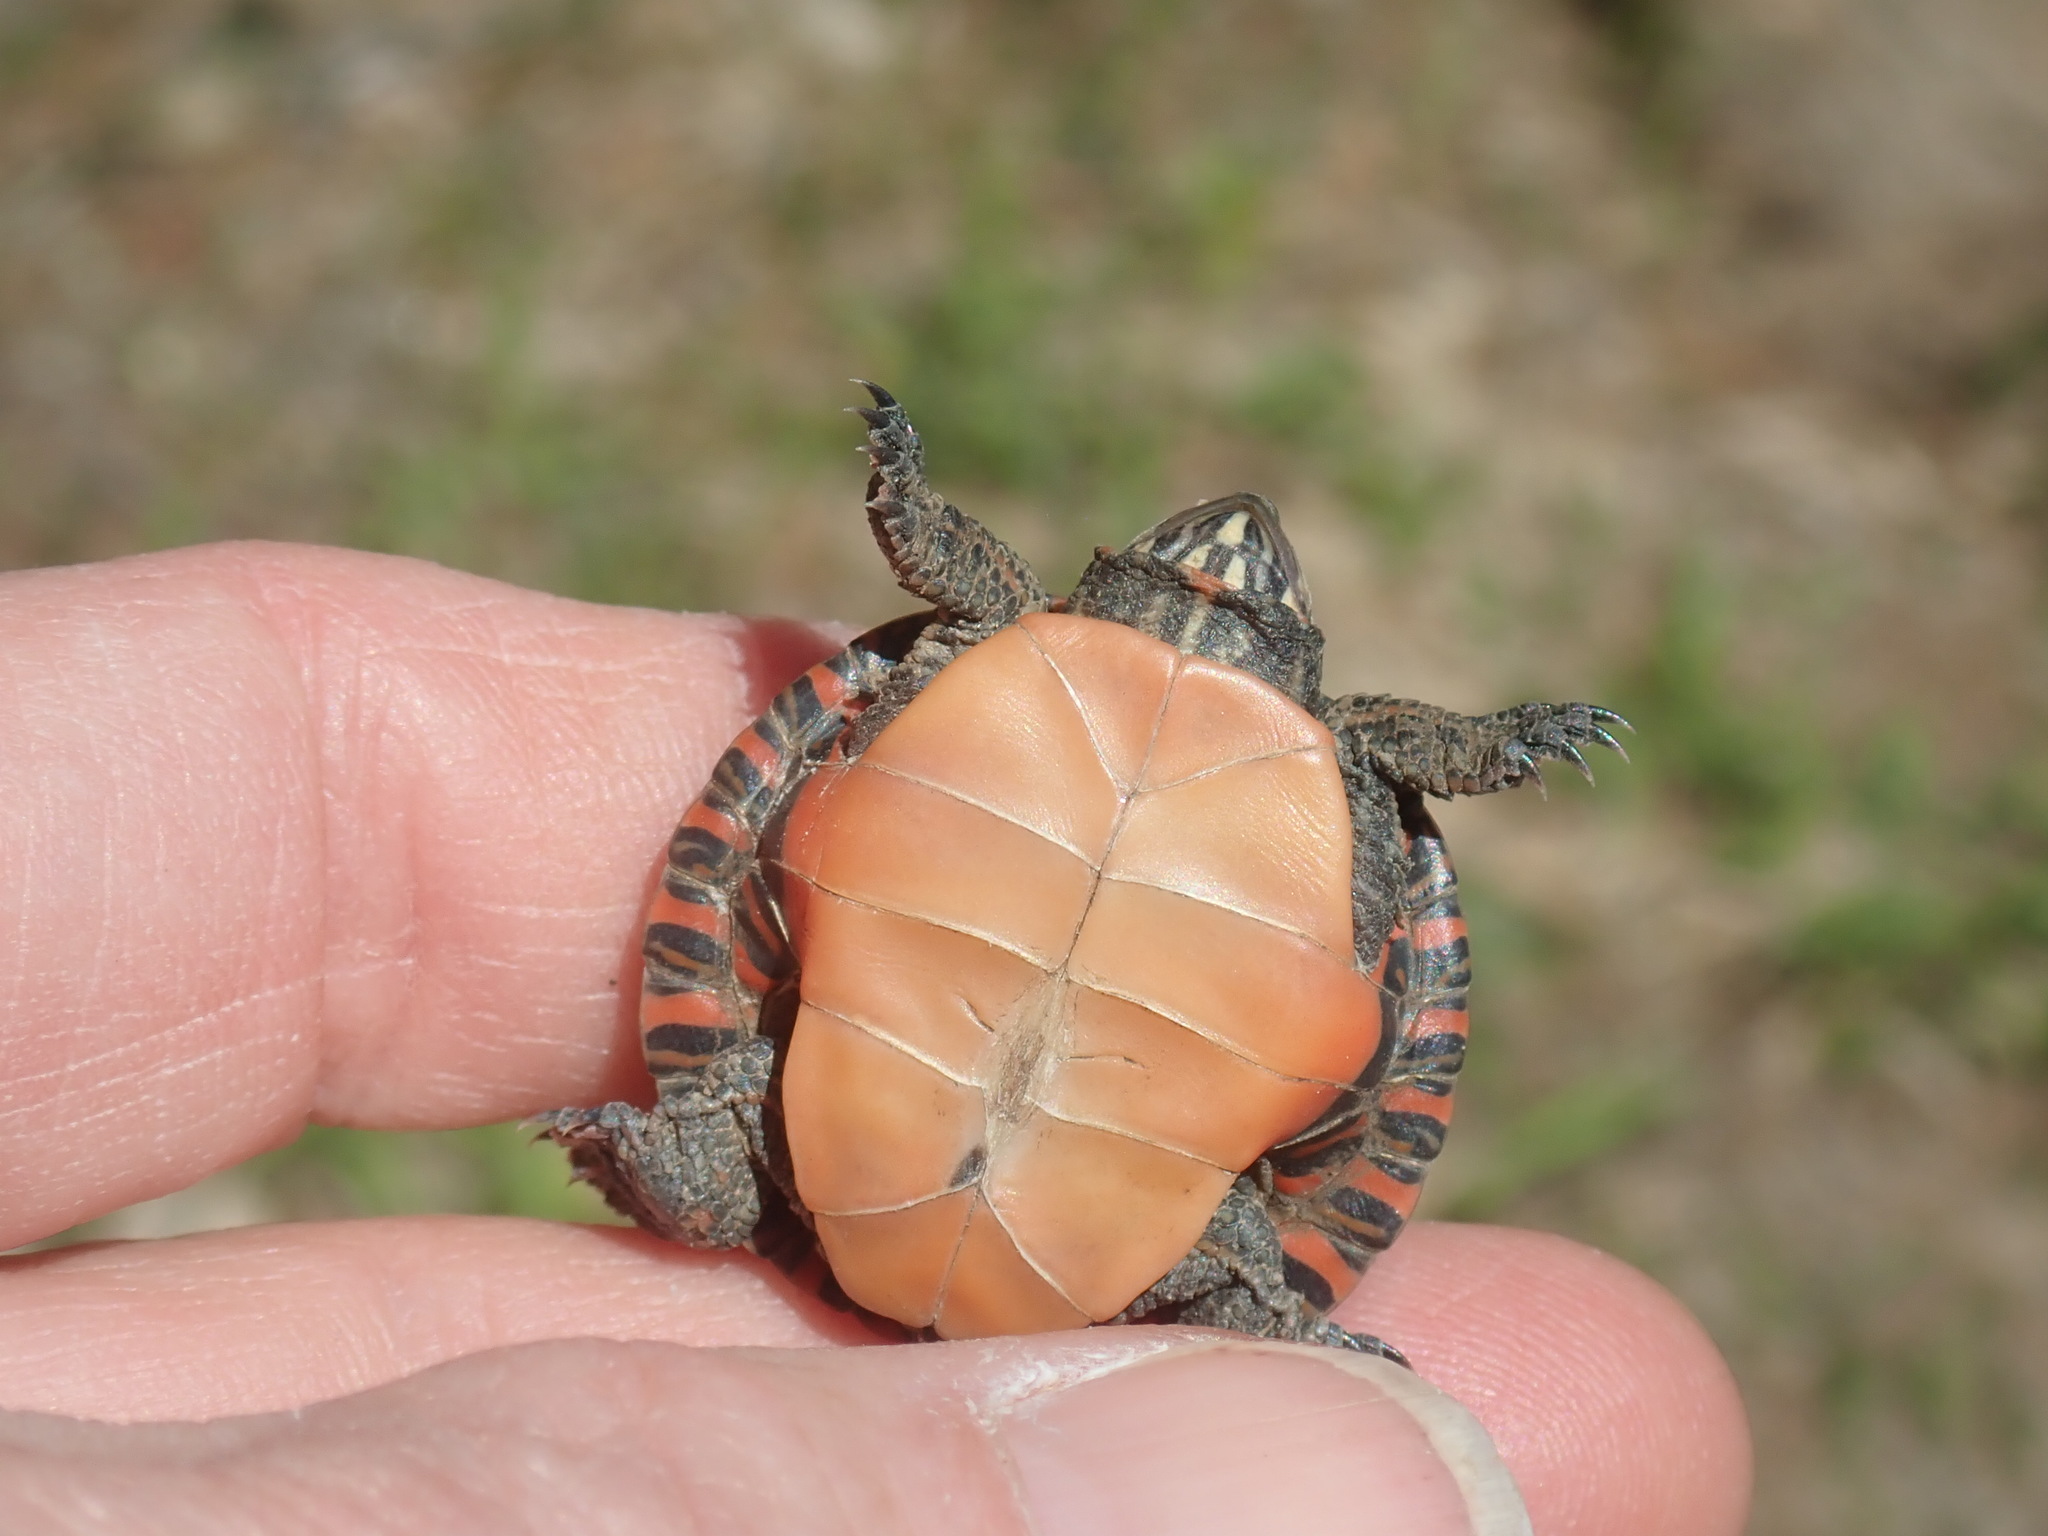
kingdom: Animalia
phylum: Chordata
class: Testudines
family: Emydidae
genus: Chrysemys
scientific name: Chrysemys picta
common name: Painted turtle
